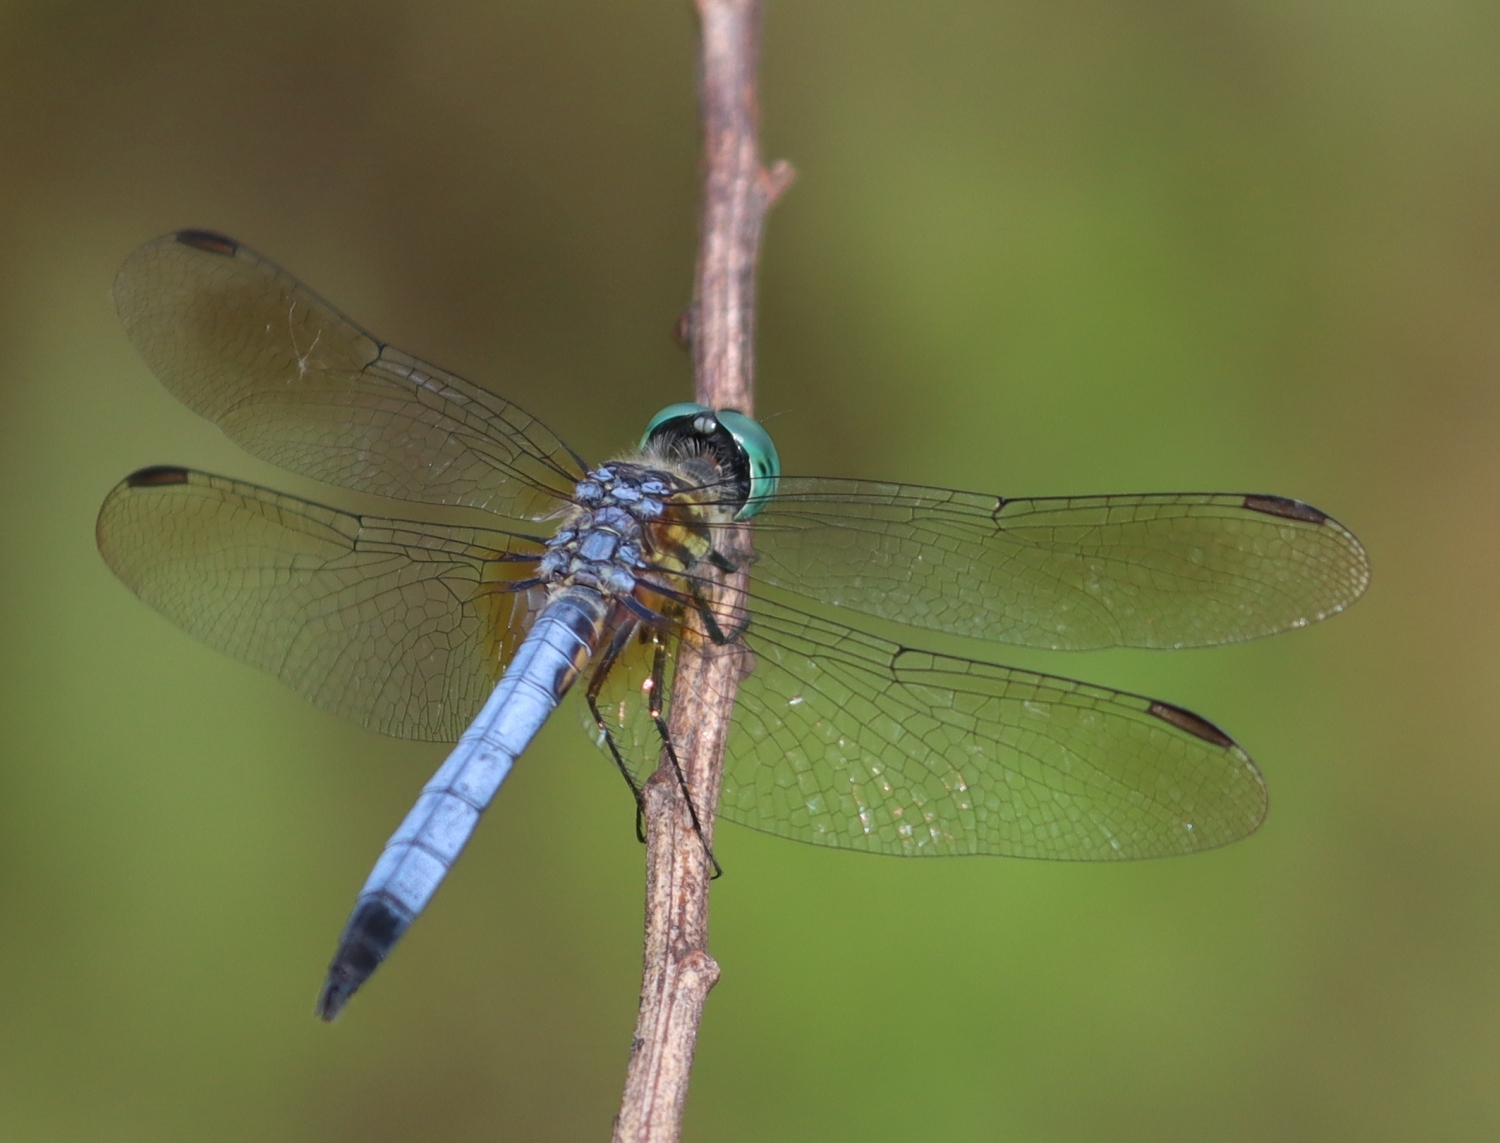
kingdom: Animalia
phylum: Arthropoda
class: Insecta
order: Odonata
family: Libellulidae
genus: Pachydiplax
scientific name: Pachydiplax longipennis
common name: Blue dasher
